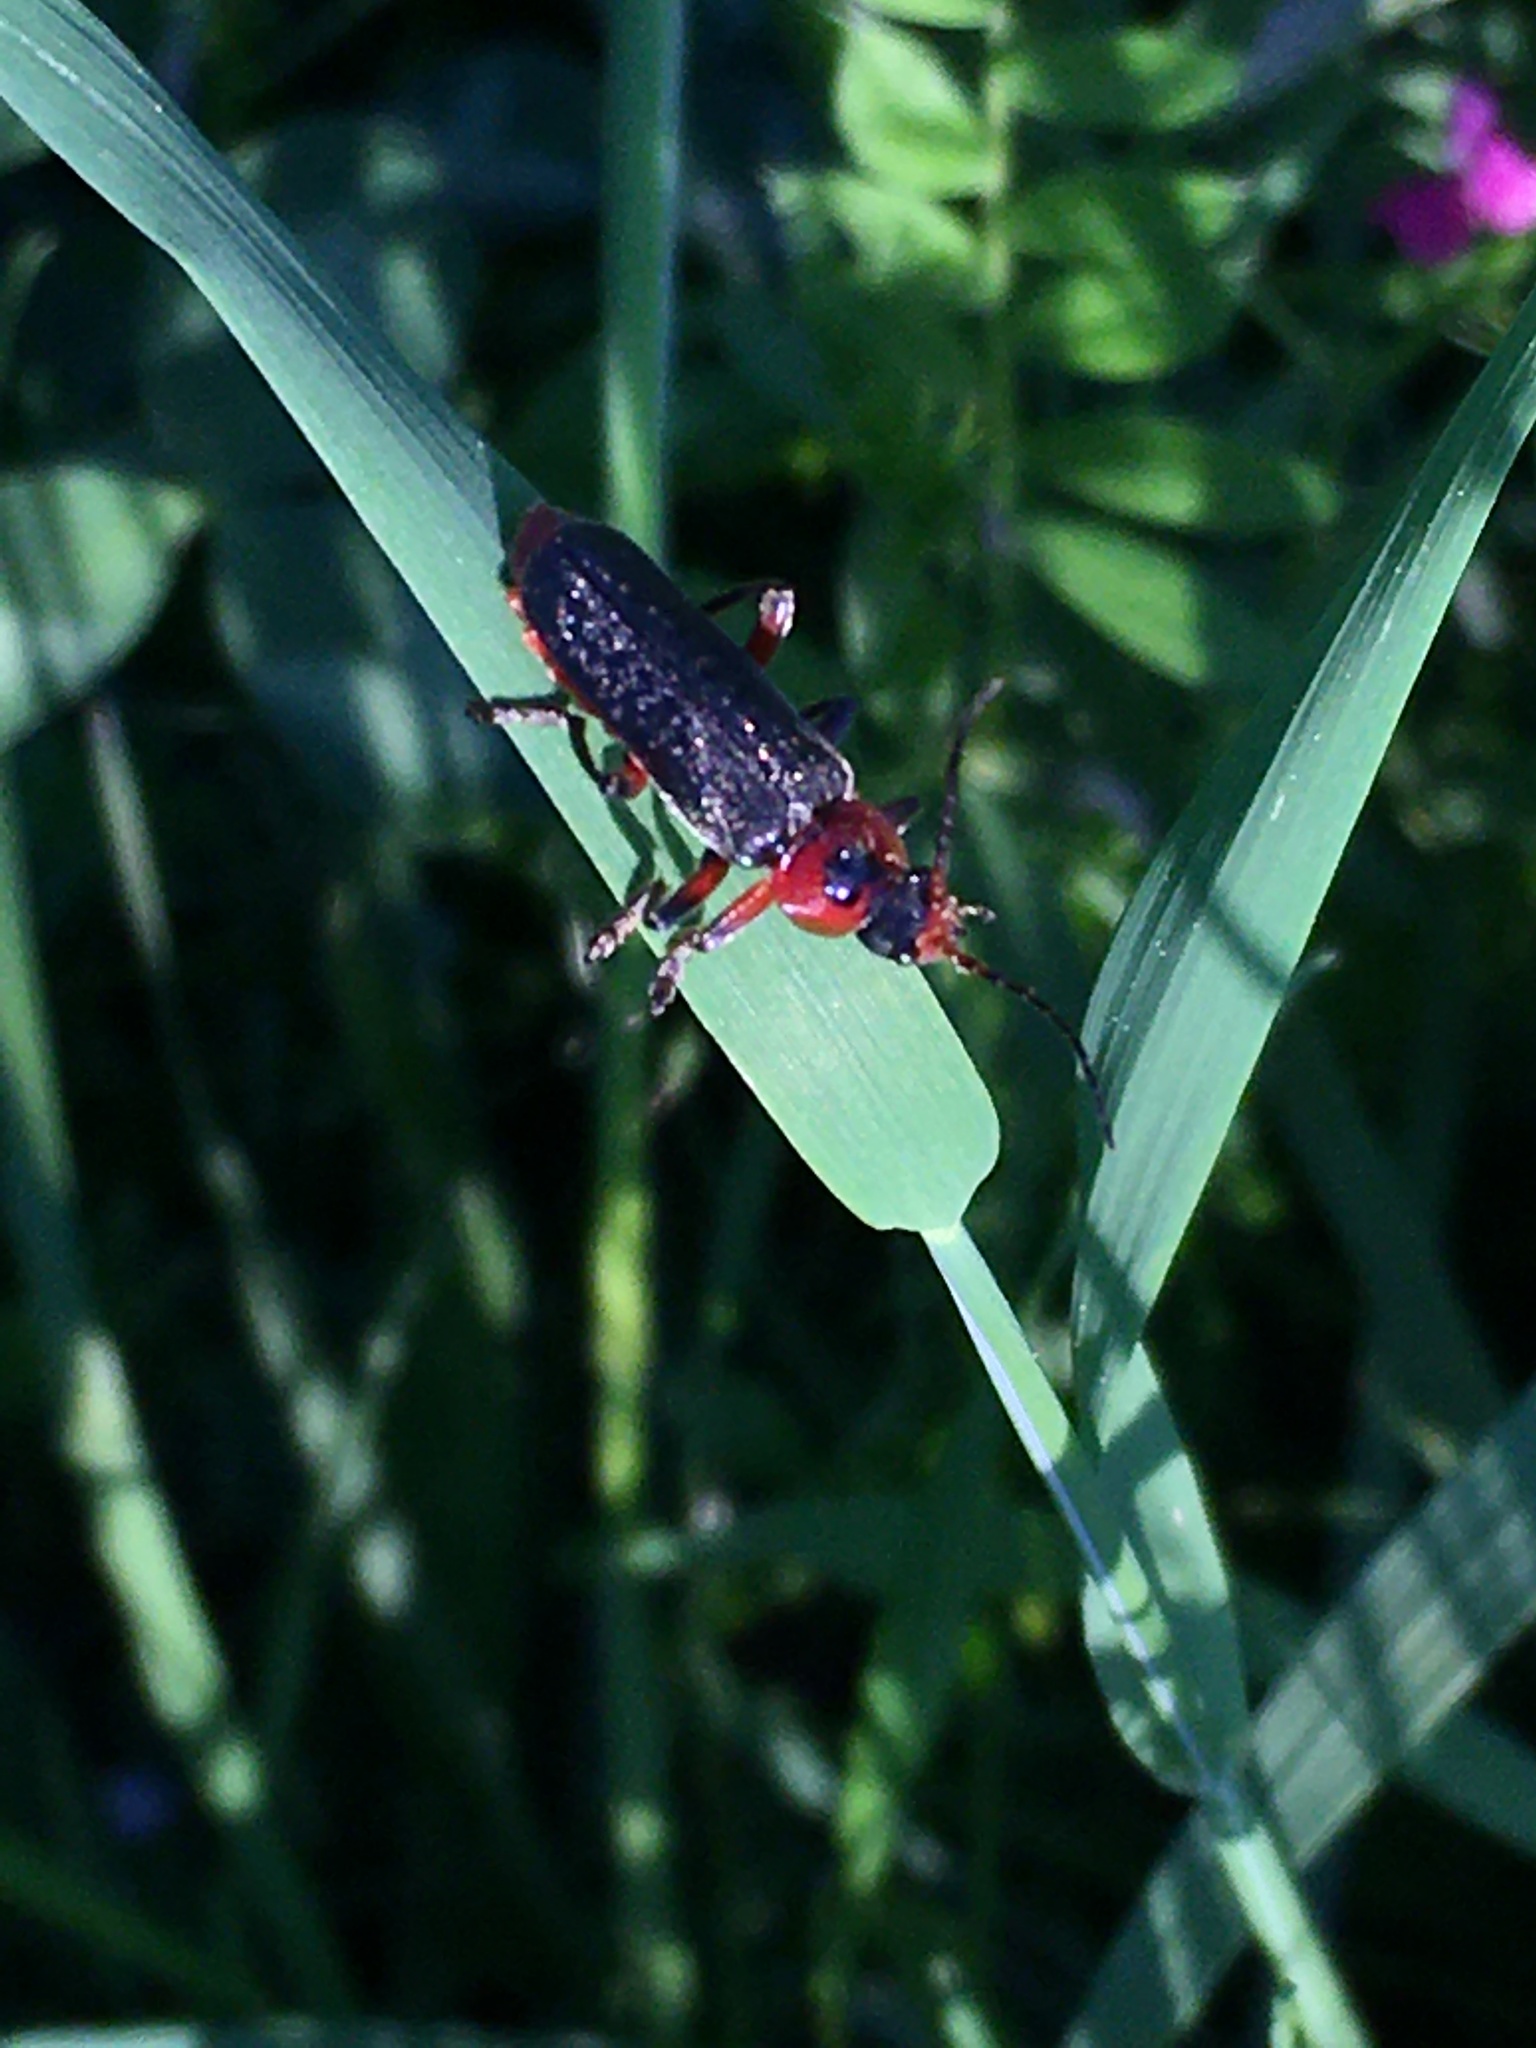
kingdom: Animalia
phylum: Arthropoda
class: Insecta
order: Coleoptera
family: Cantharidae
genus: Cantharis
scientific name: Cantharis rustica
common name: Soldier beetle
